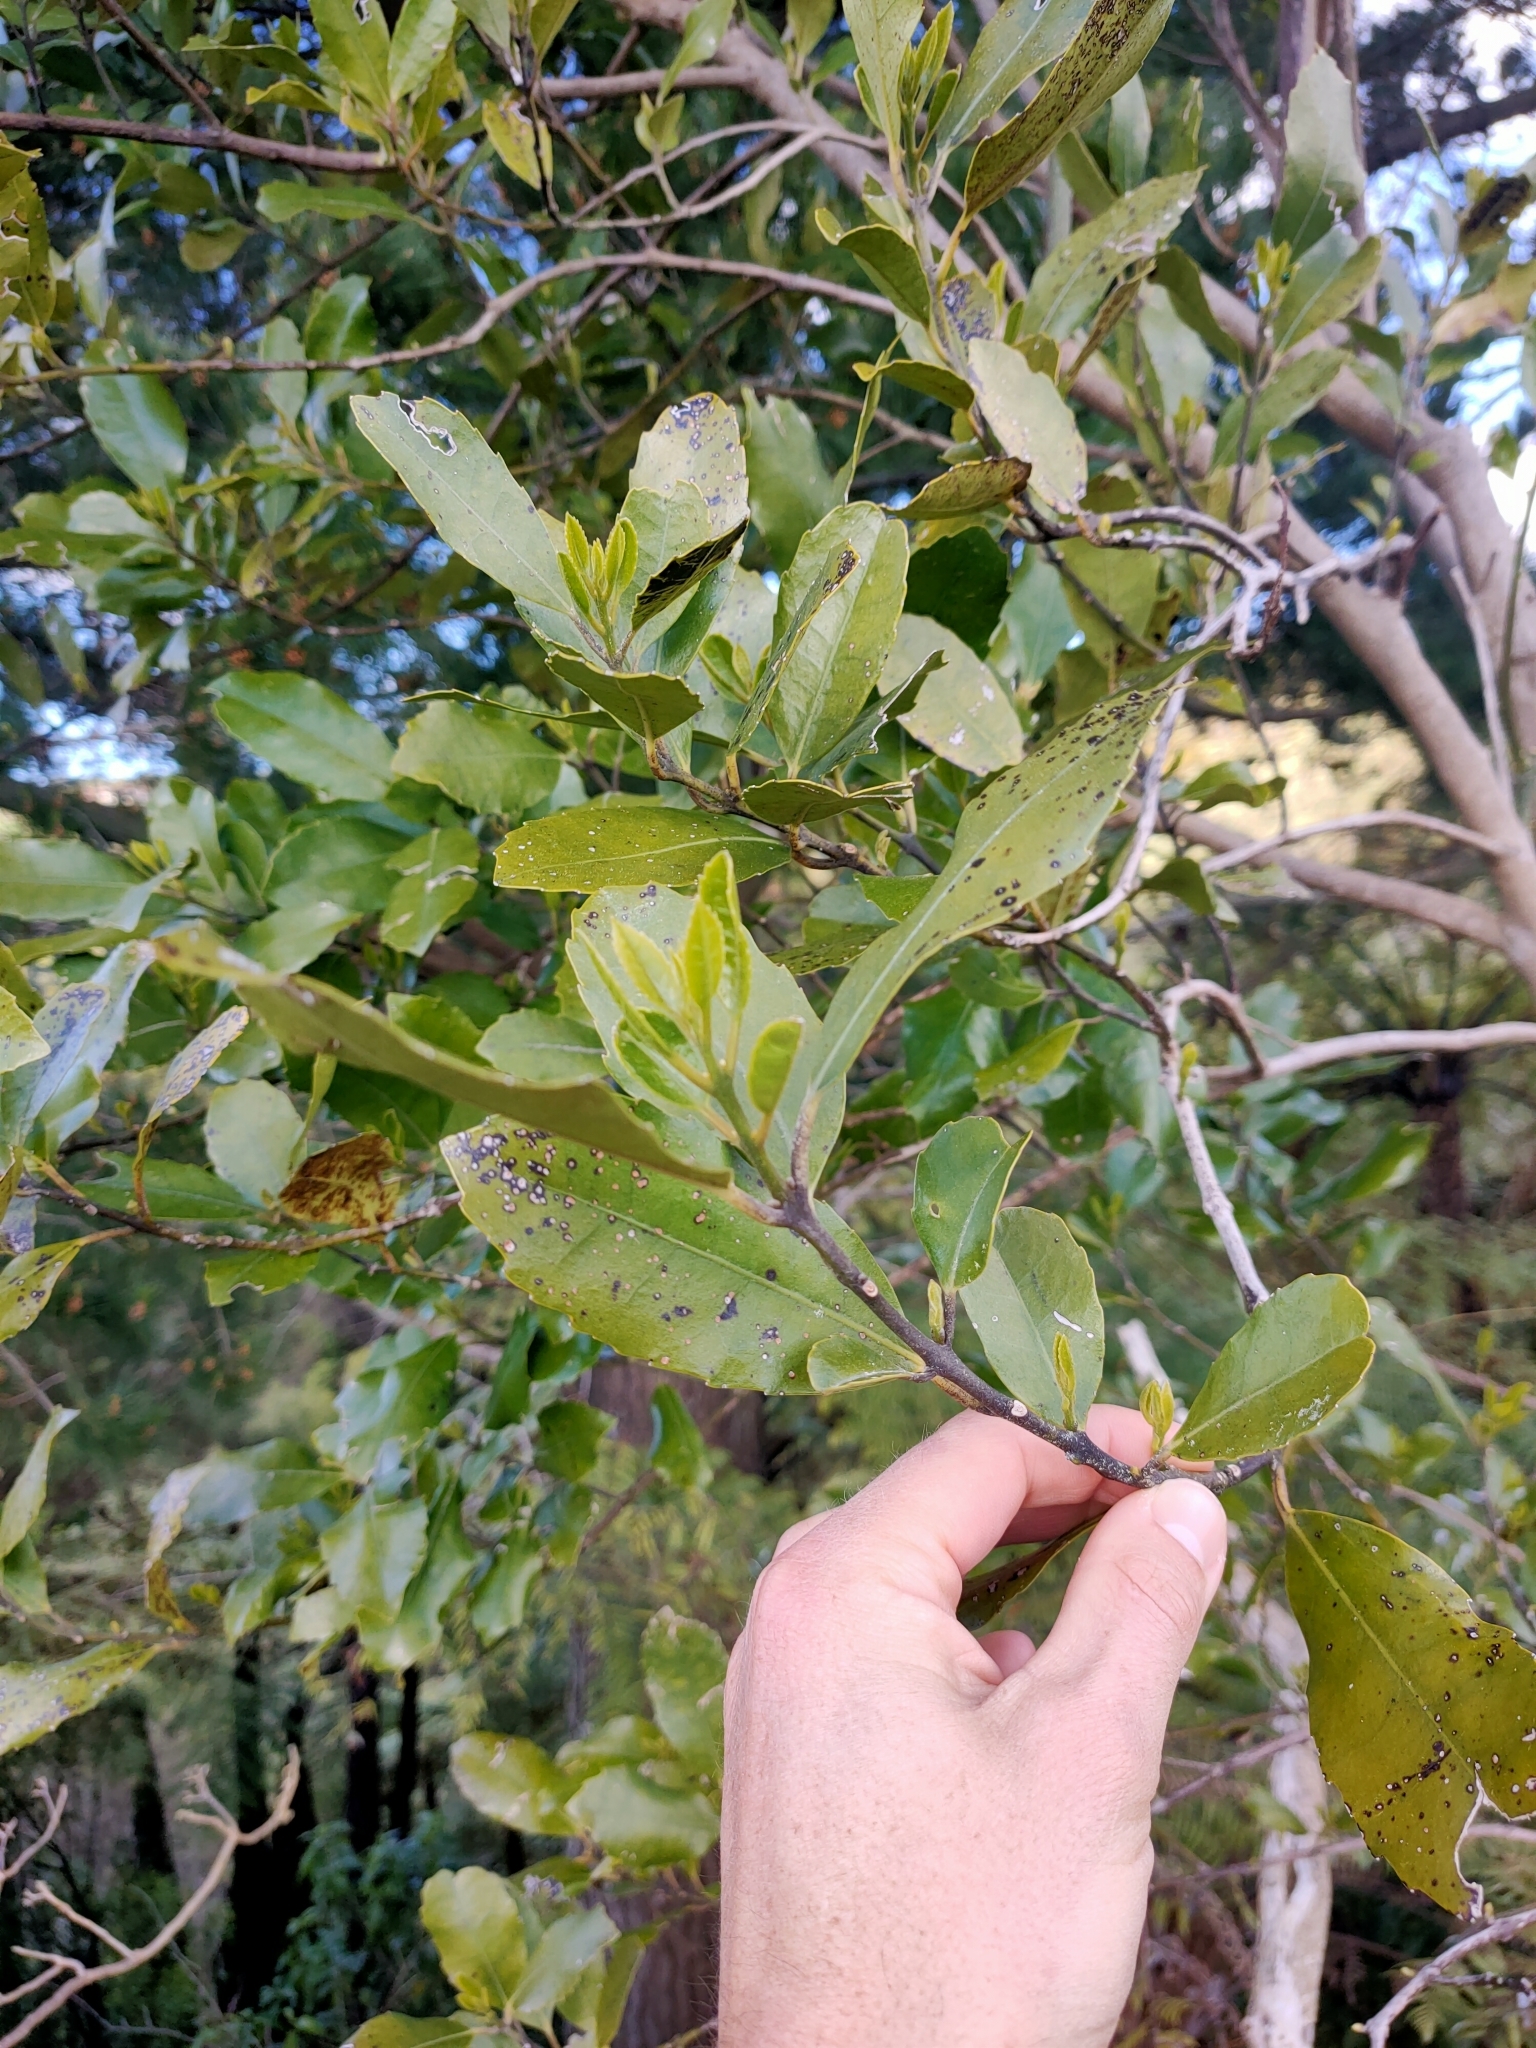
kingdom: Plantae
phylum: Tracheophyta
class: Magnoliopsida
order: Laurales
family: Monimiaceae
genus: Hedycarya
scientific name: Hedycarya arborea
